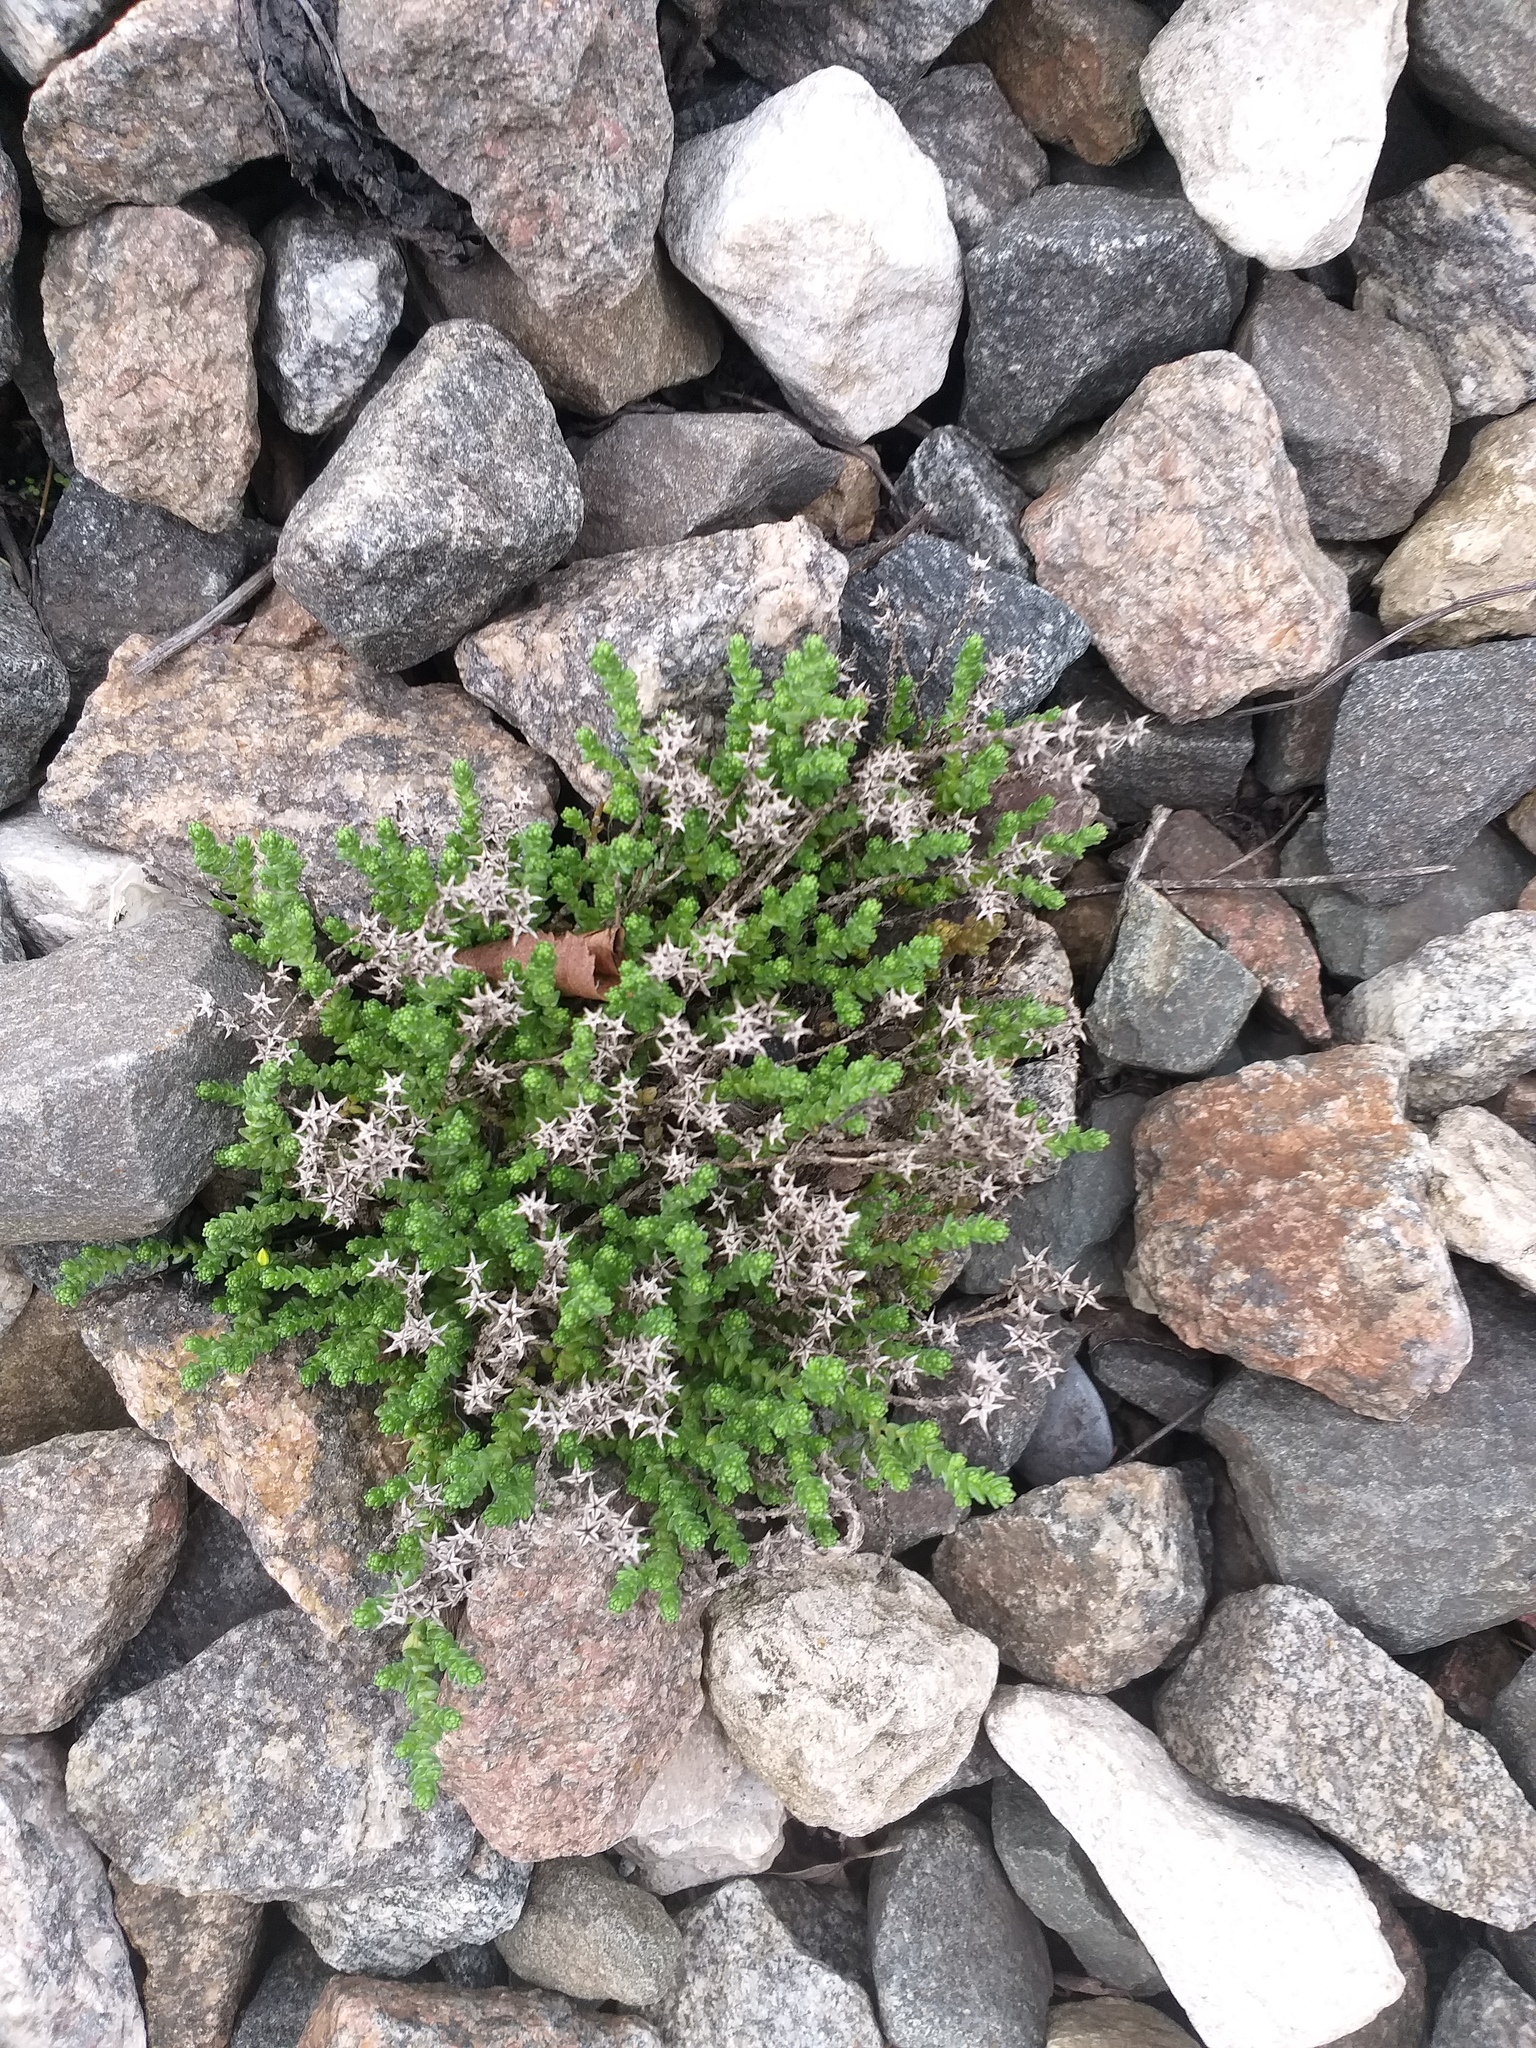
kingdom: Plantae
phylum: Tracheophyta
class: Magnoliopsida
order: Saxifragales
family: Crassulaceae
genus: Sedum
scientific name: Sedum acre
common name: Biting stonecrop
